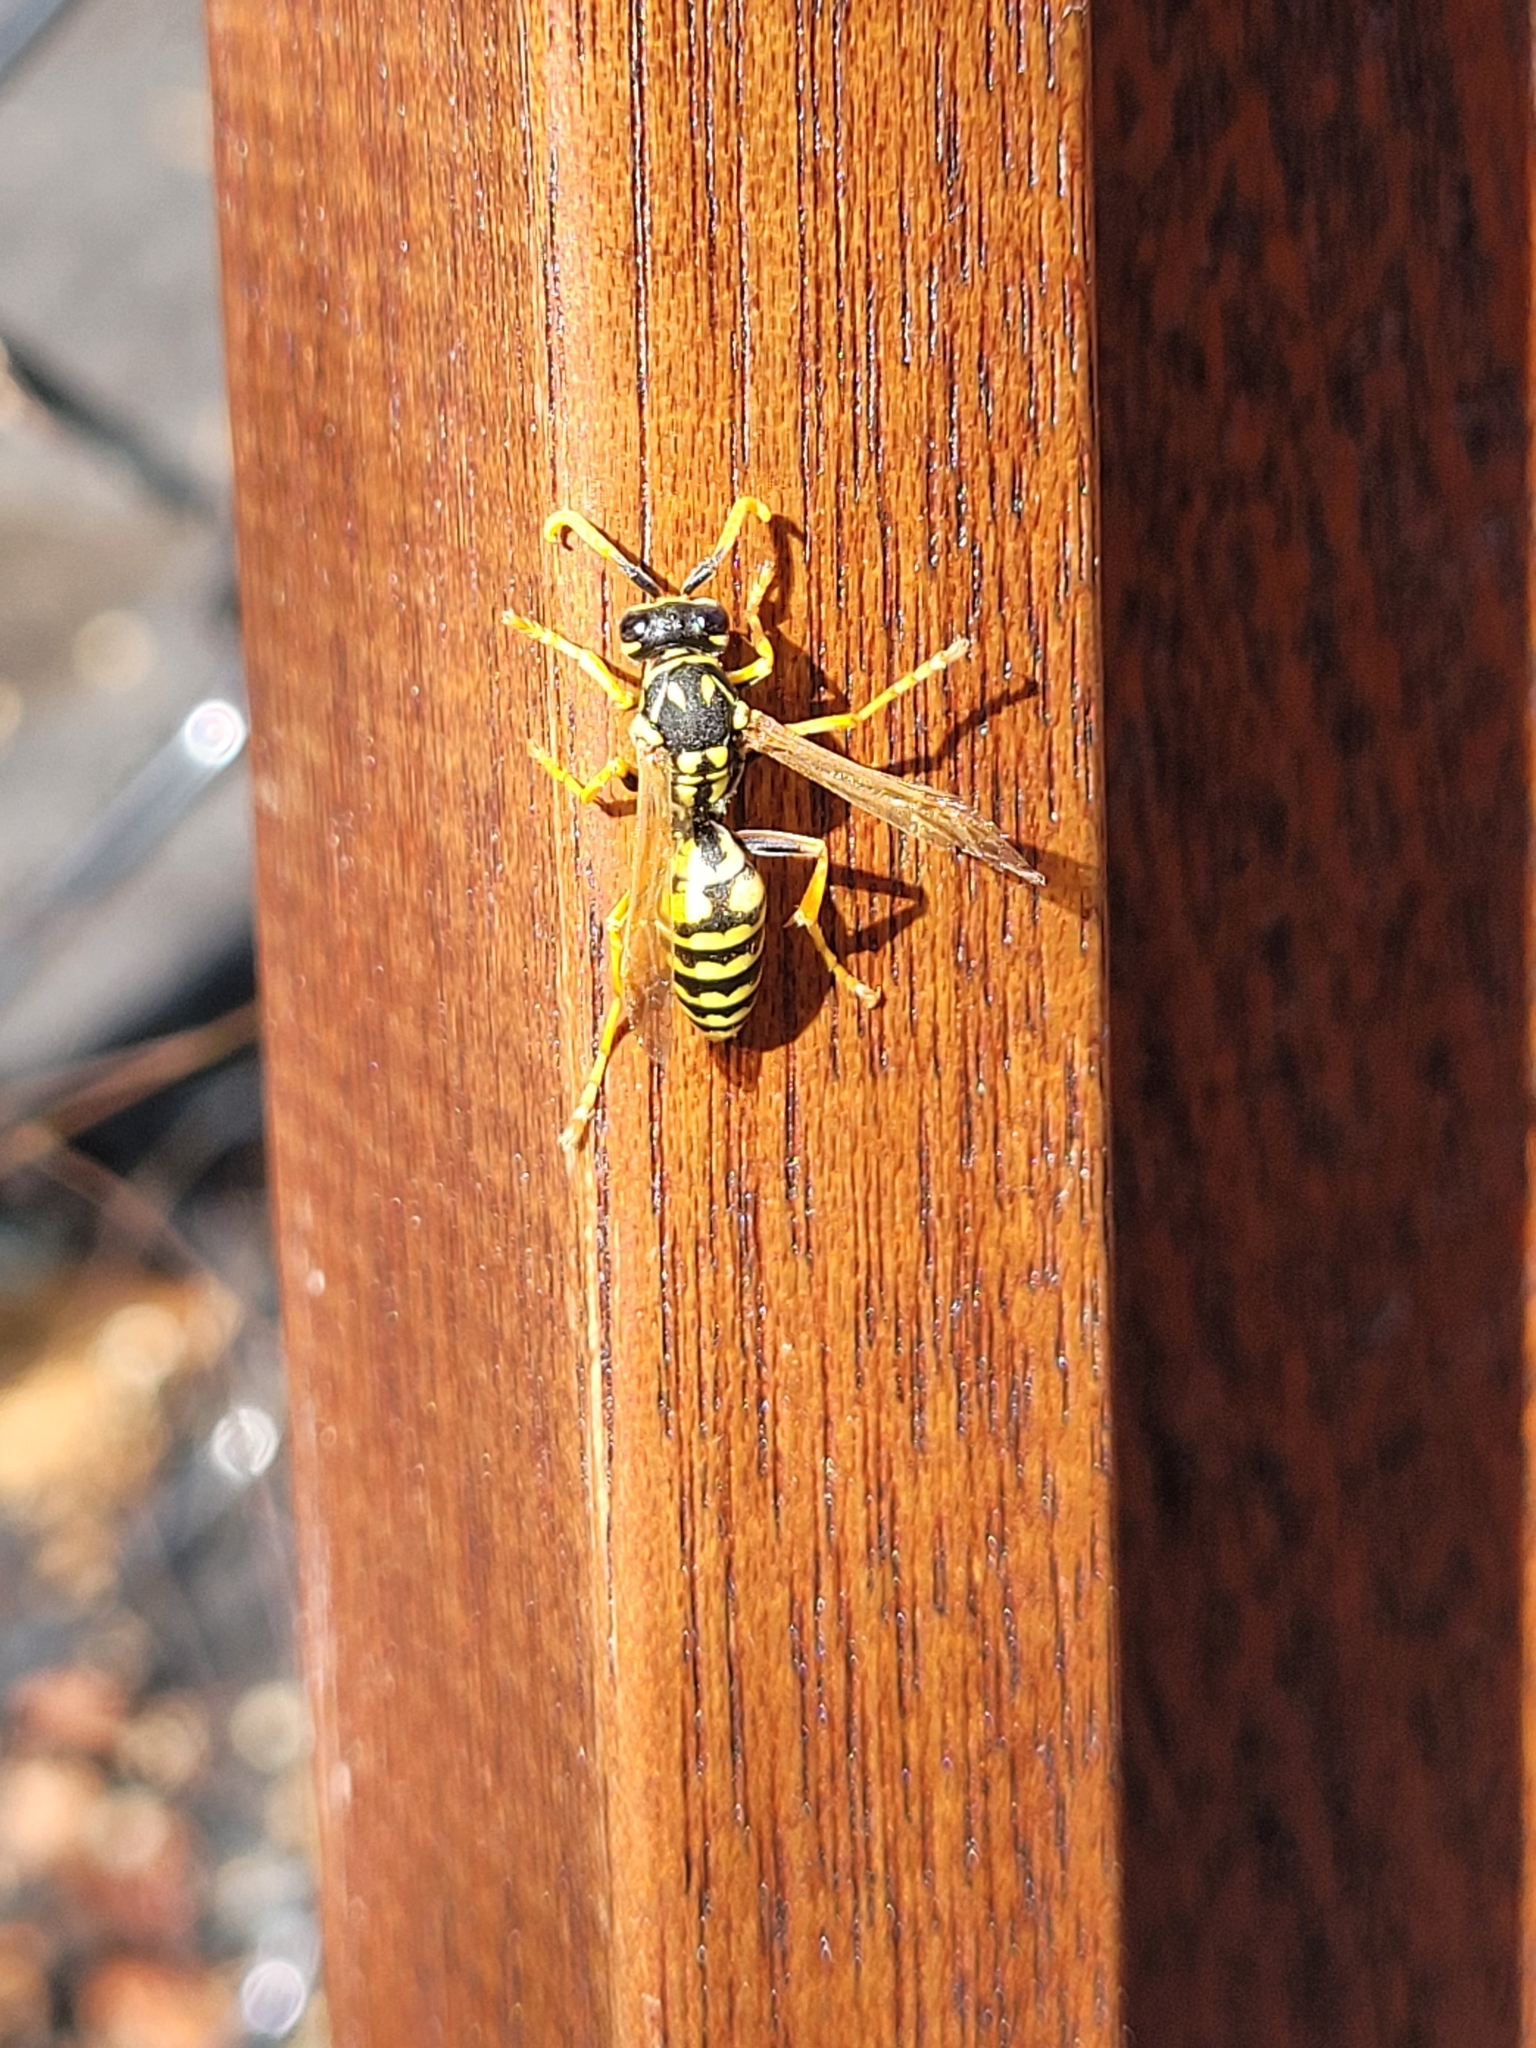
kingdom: Animalia
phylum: Arthropoda
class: Insecta
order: Hymenoptera
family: Eumenidae
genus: Polistes
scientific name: Polistes dominula
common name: Paper wasp
